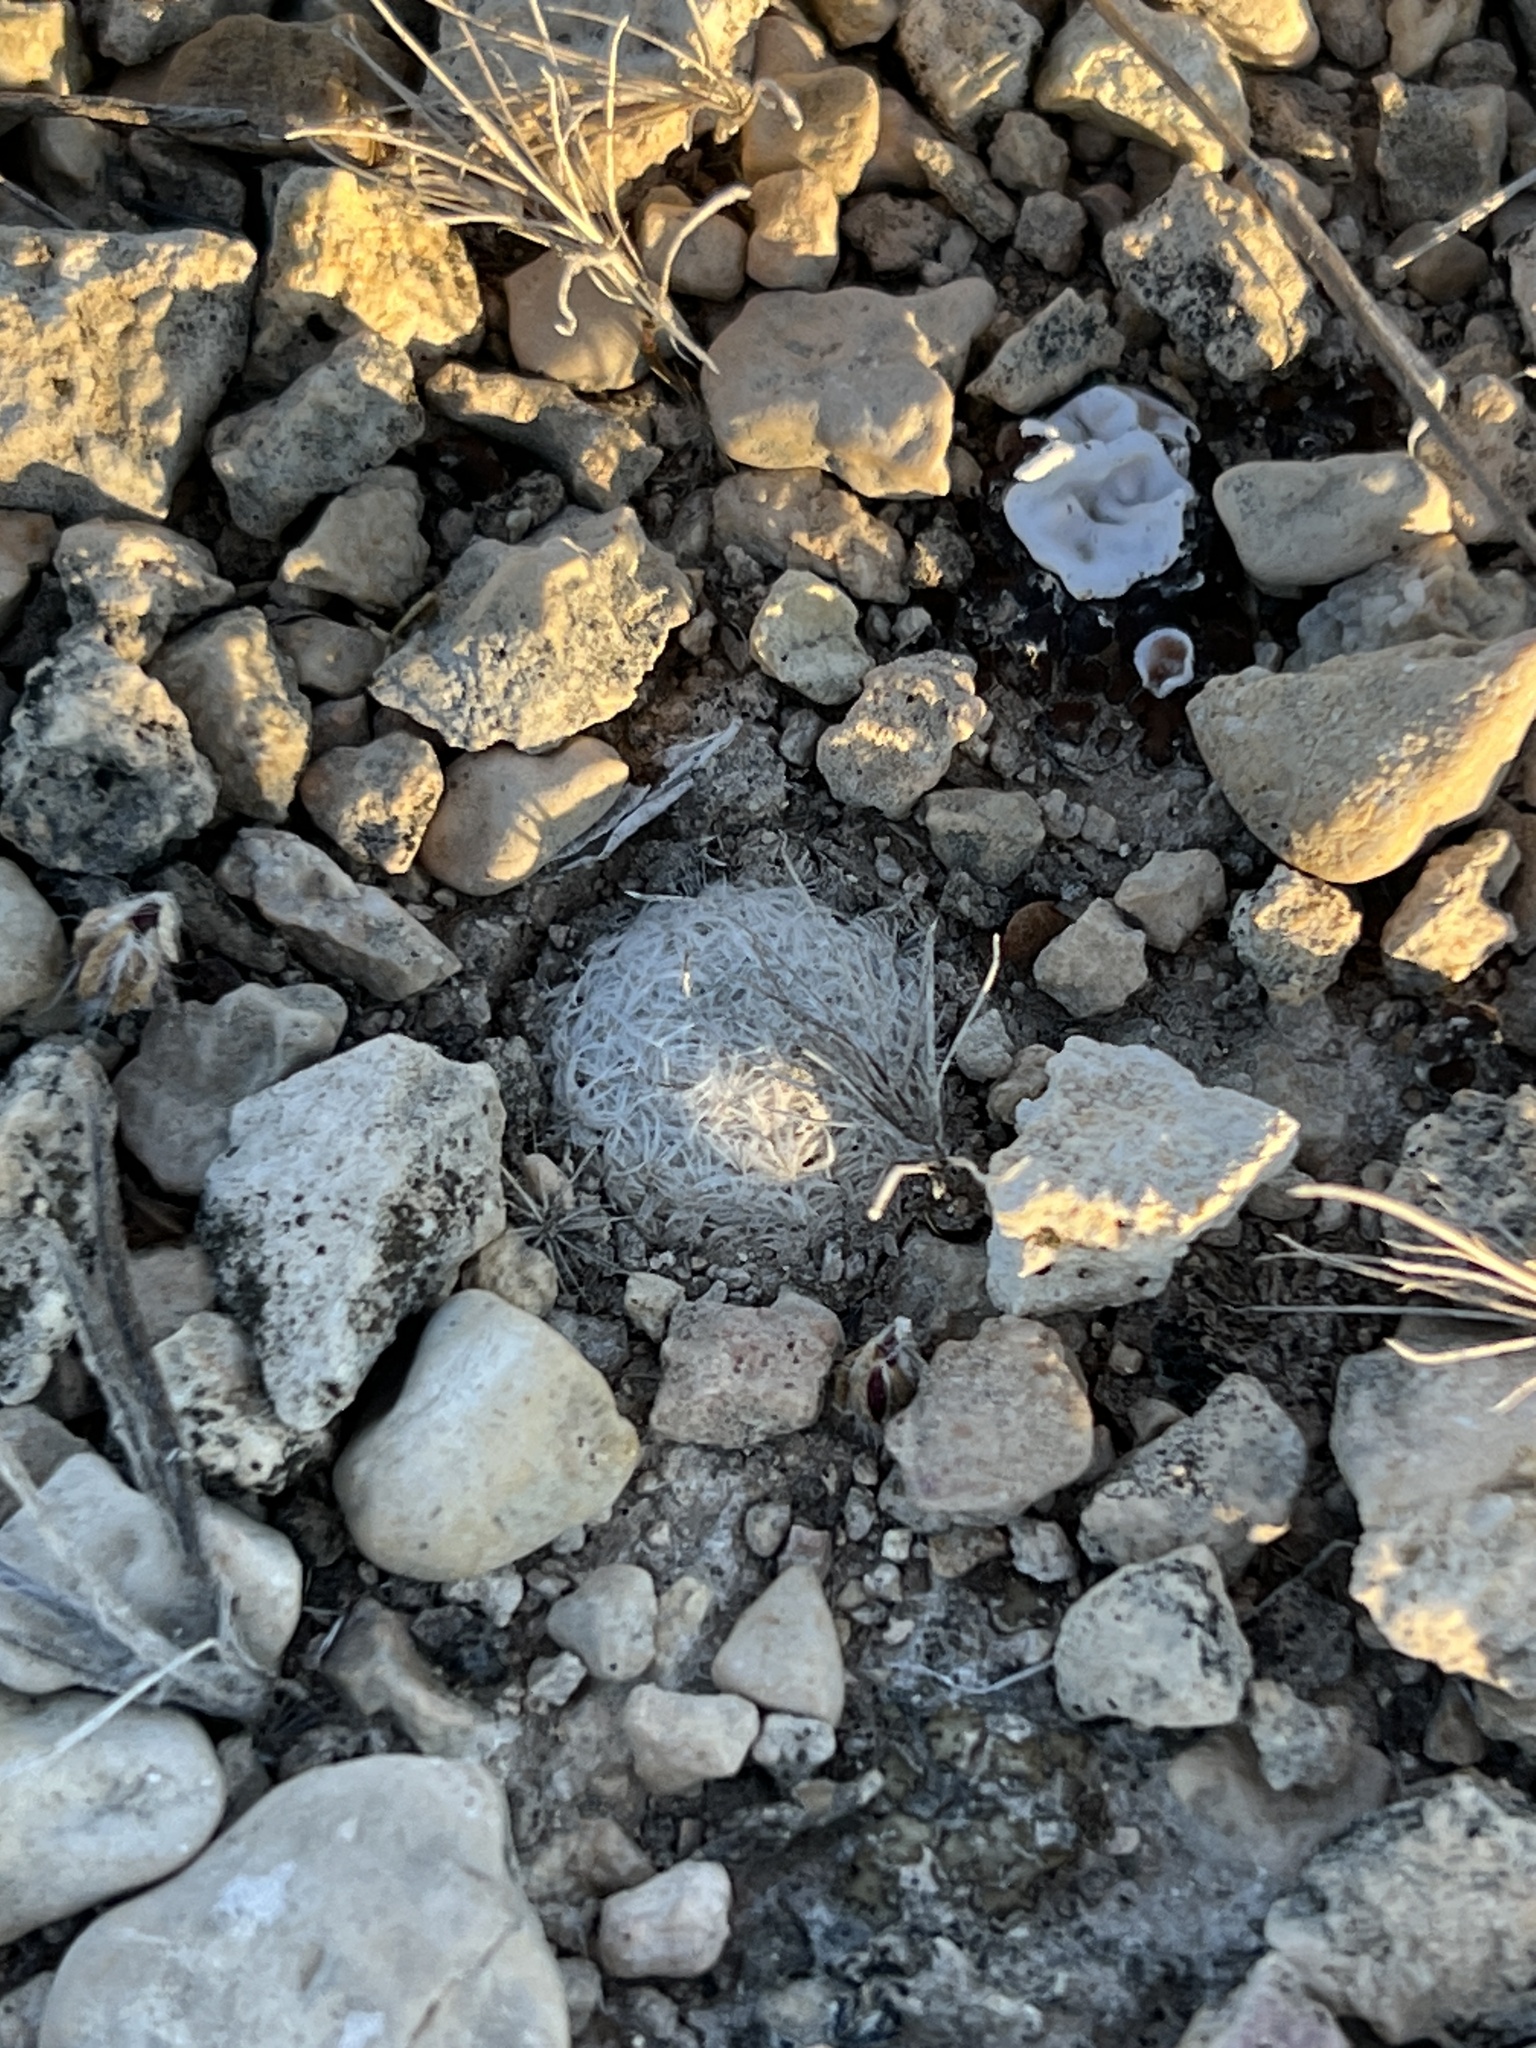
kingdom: Plantae
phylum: Tracheophyta
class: Magnoliopsida
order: Caryophyllales
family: Cactaceae
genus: Mammillaria
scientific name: Mammillaria lasiacantha
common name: Lace-spine nipple cactus
